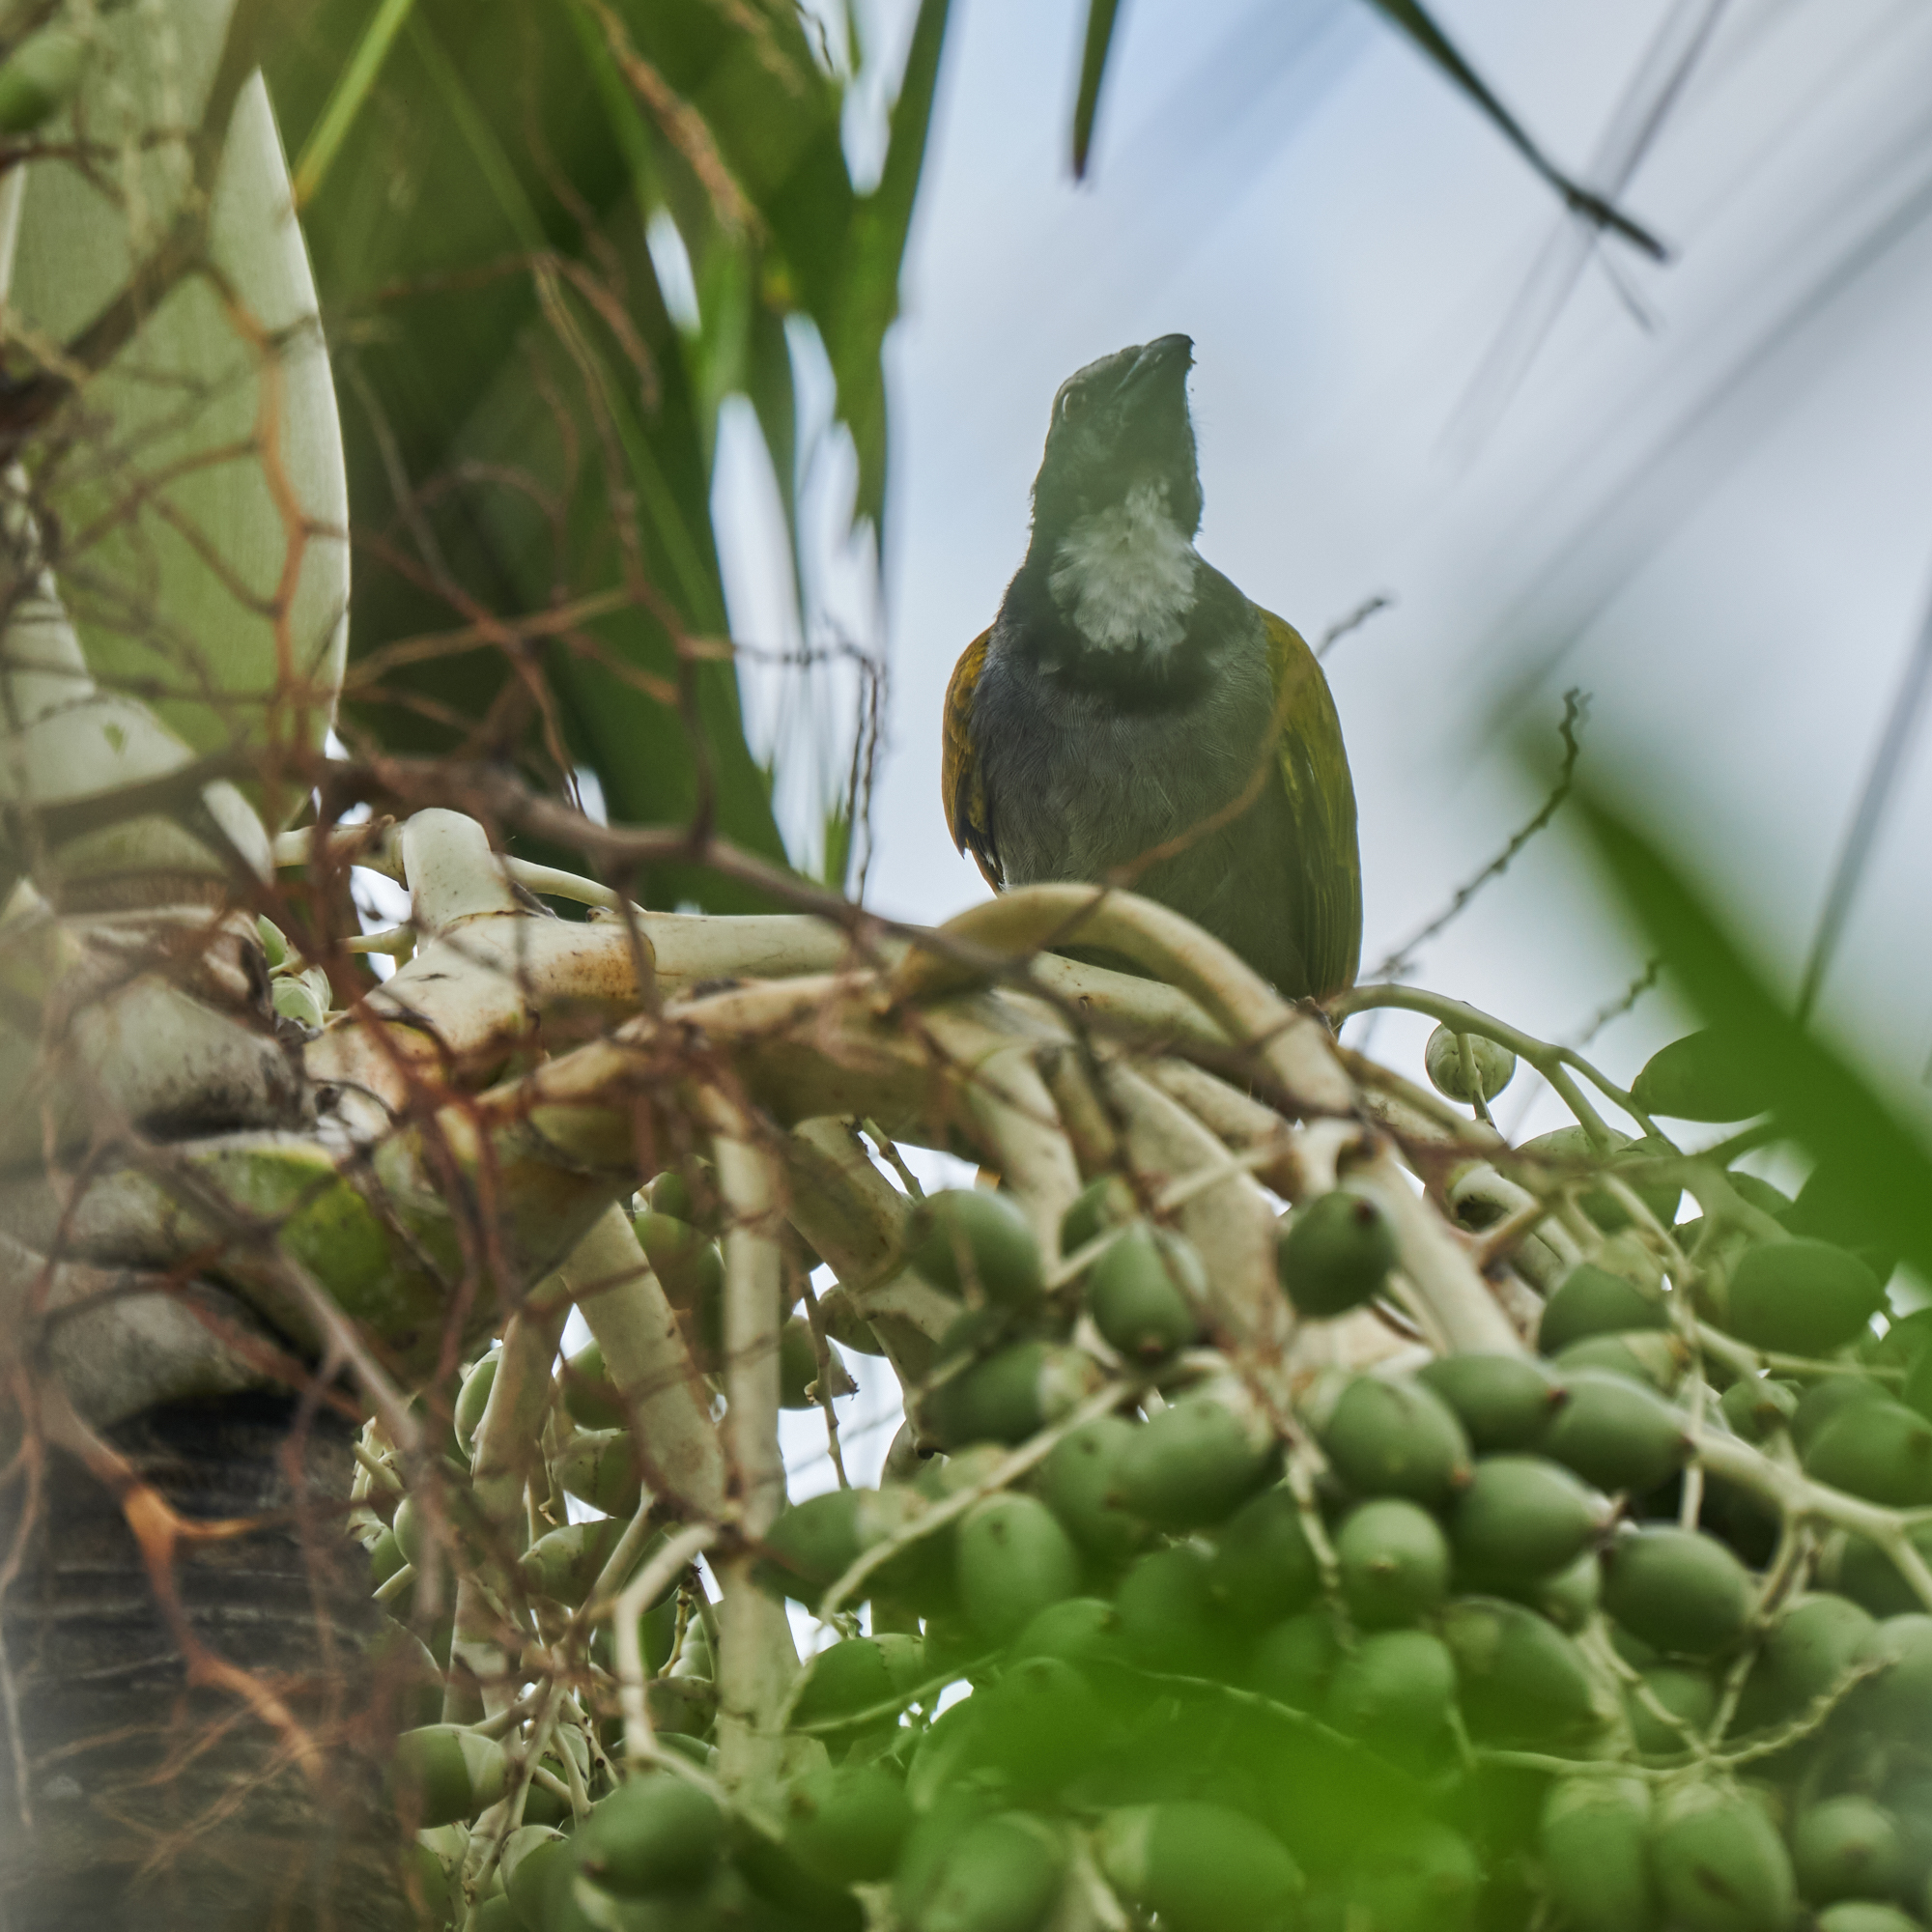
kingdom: Animalia
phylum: Chordata
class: Aves
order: Passeriformes
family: Thraupidae
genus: Saltator
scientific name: Saltator atriceps
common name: Black-headed saltator
